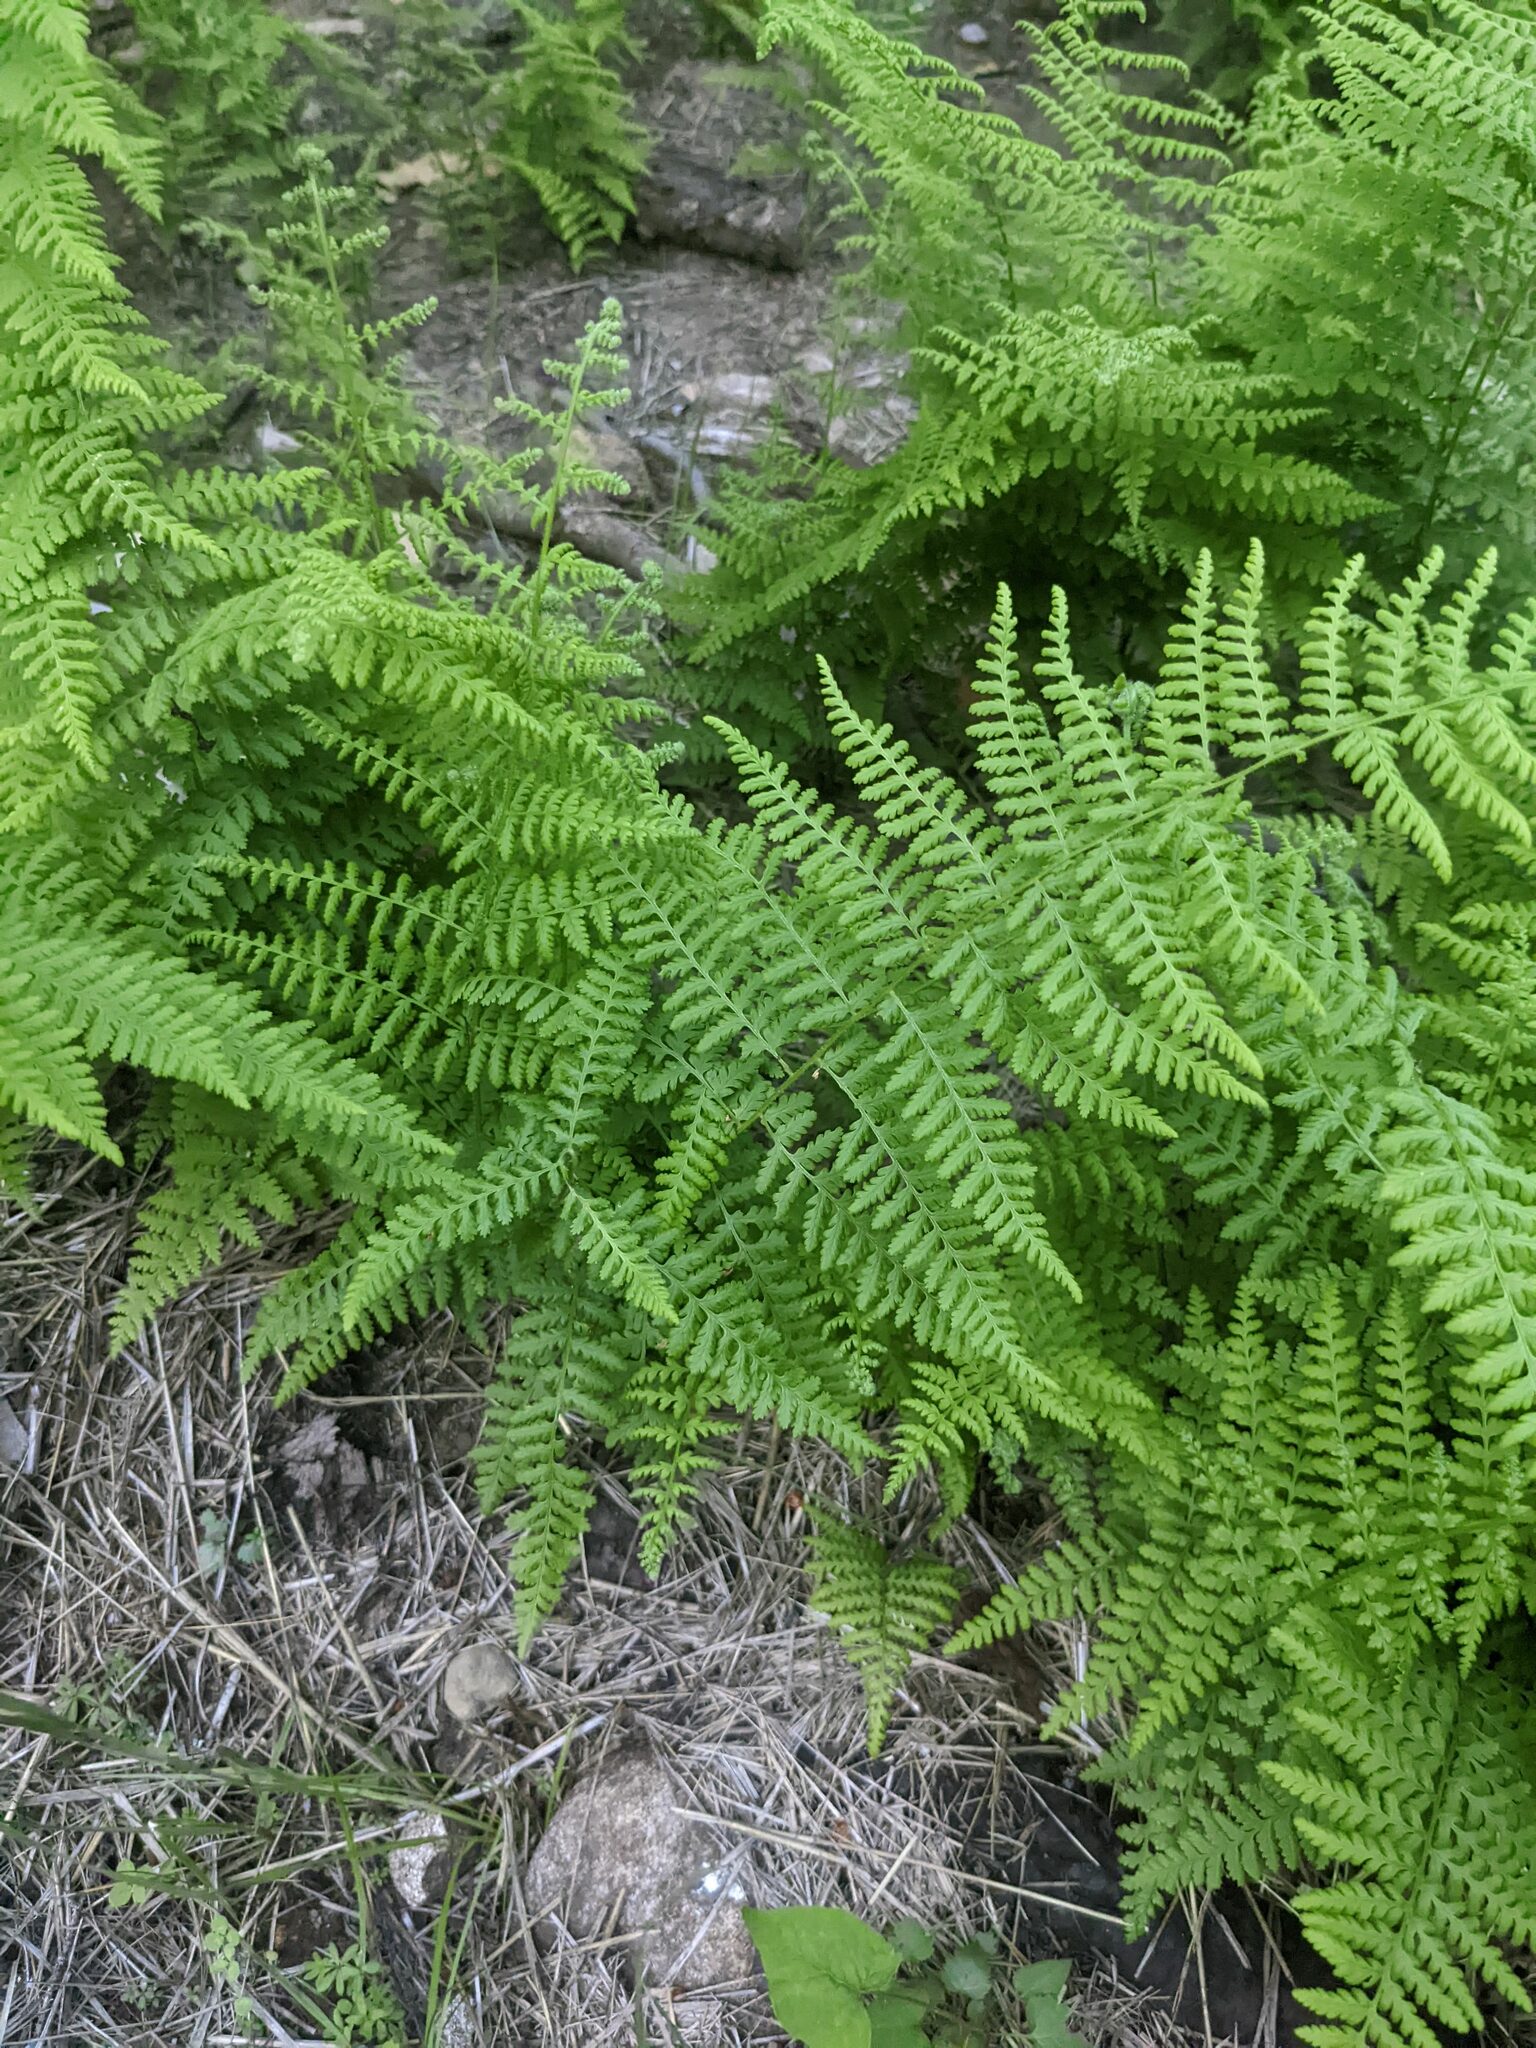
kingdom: Plantae
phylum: Tracheophyta
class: Polypodiopsida
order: Polypodiales
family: Dennstaedtiaceae
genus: Sitobolium
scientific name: Sitobolium punctilobum
